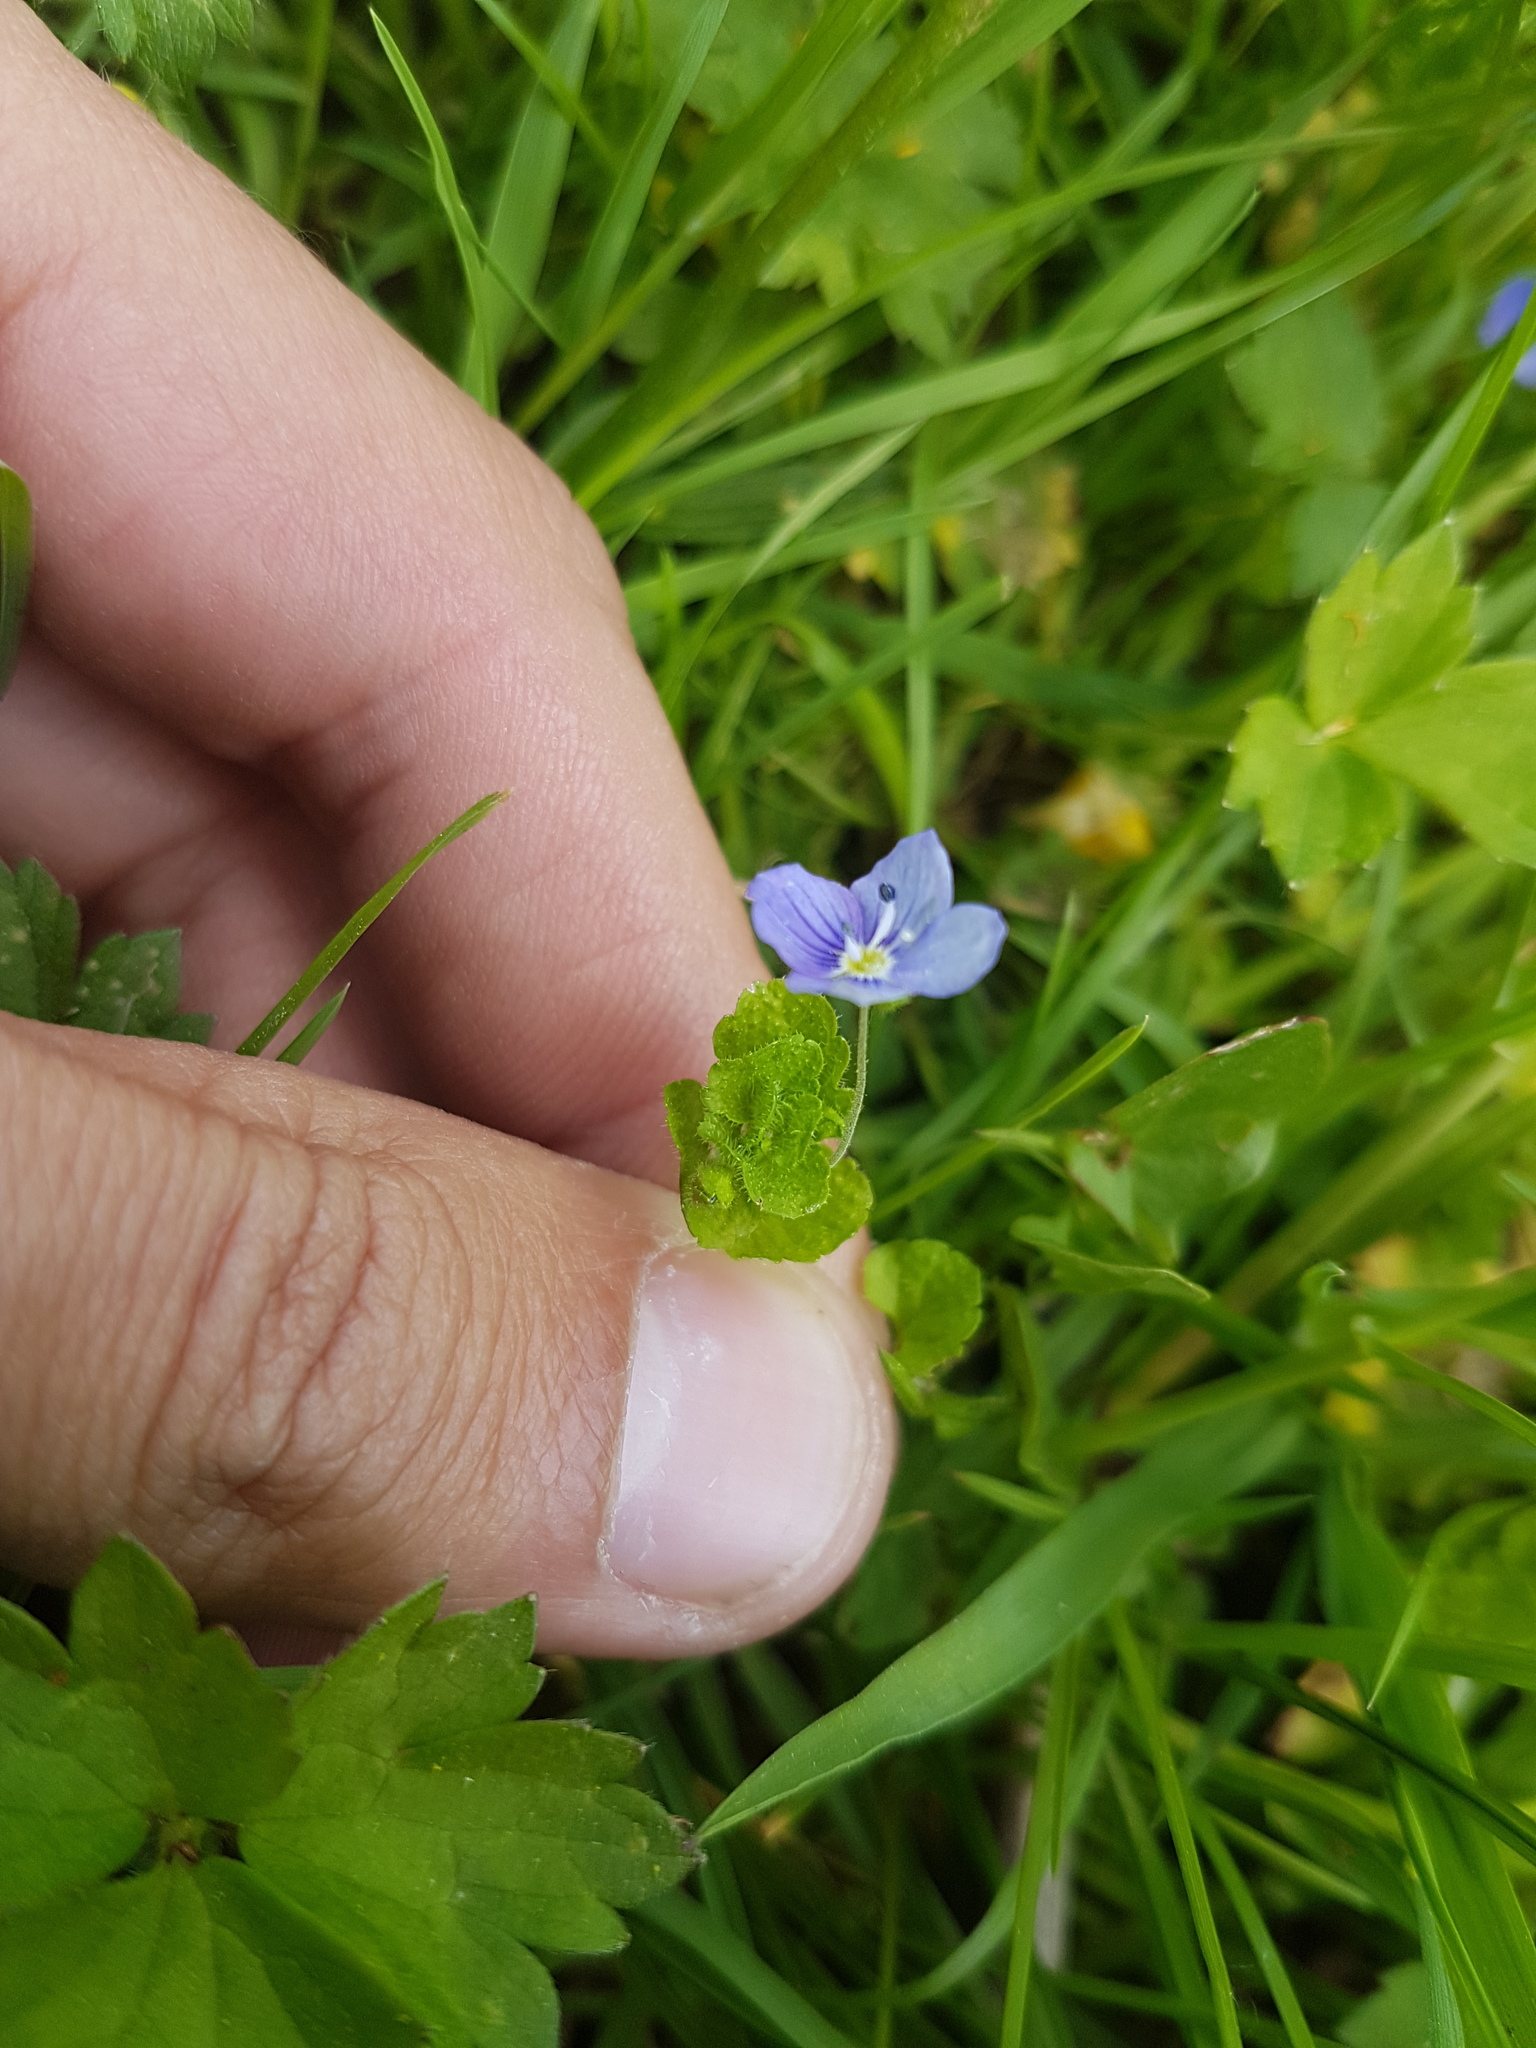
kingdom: Plantae
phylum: Tracheophyta
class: Magnoliopsida
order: Lamiales
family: Plantaginaceae
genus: Veronica
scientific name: Veronica filiformis
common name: Slender speedwell
